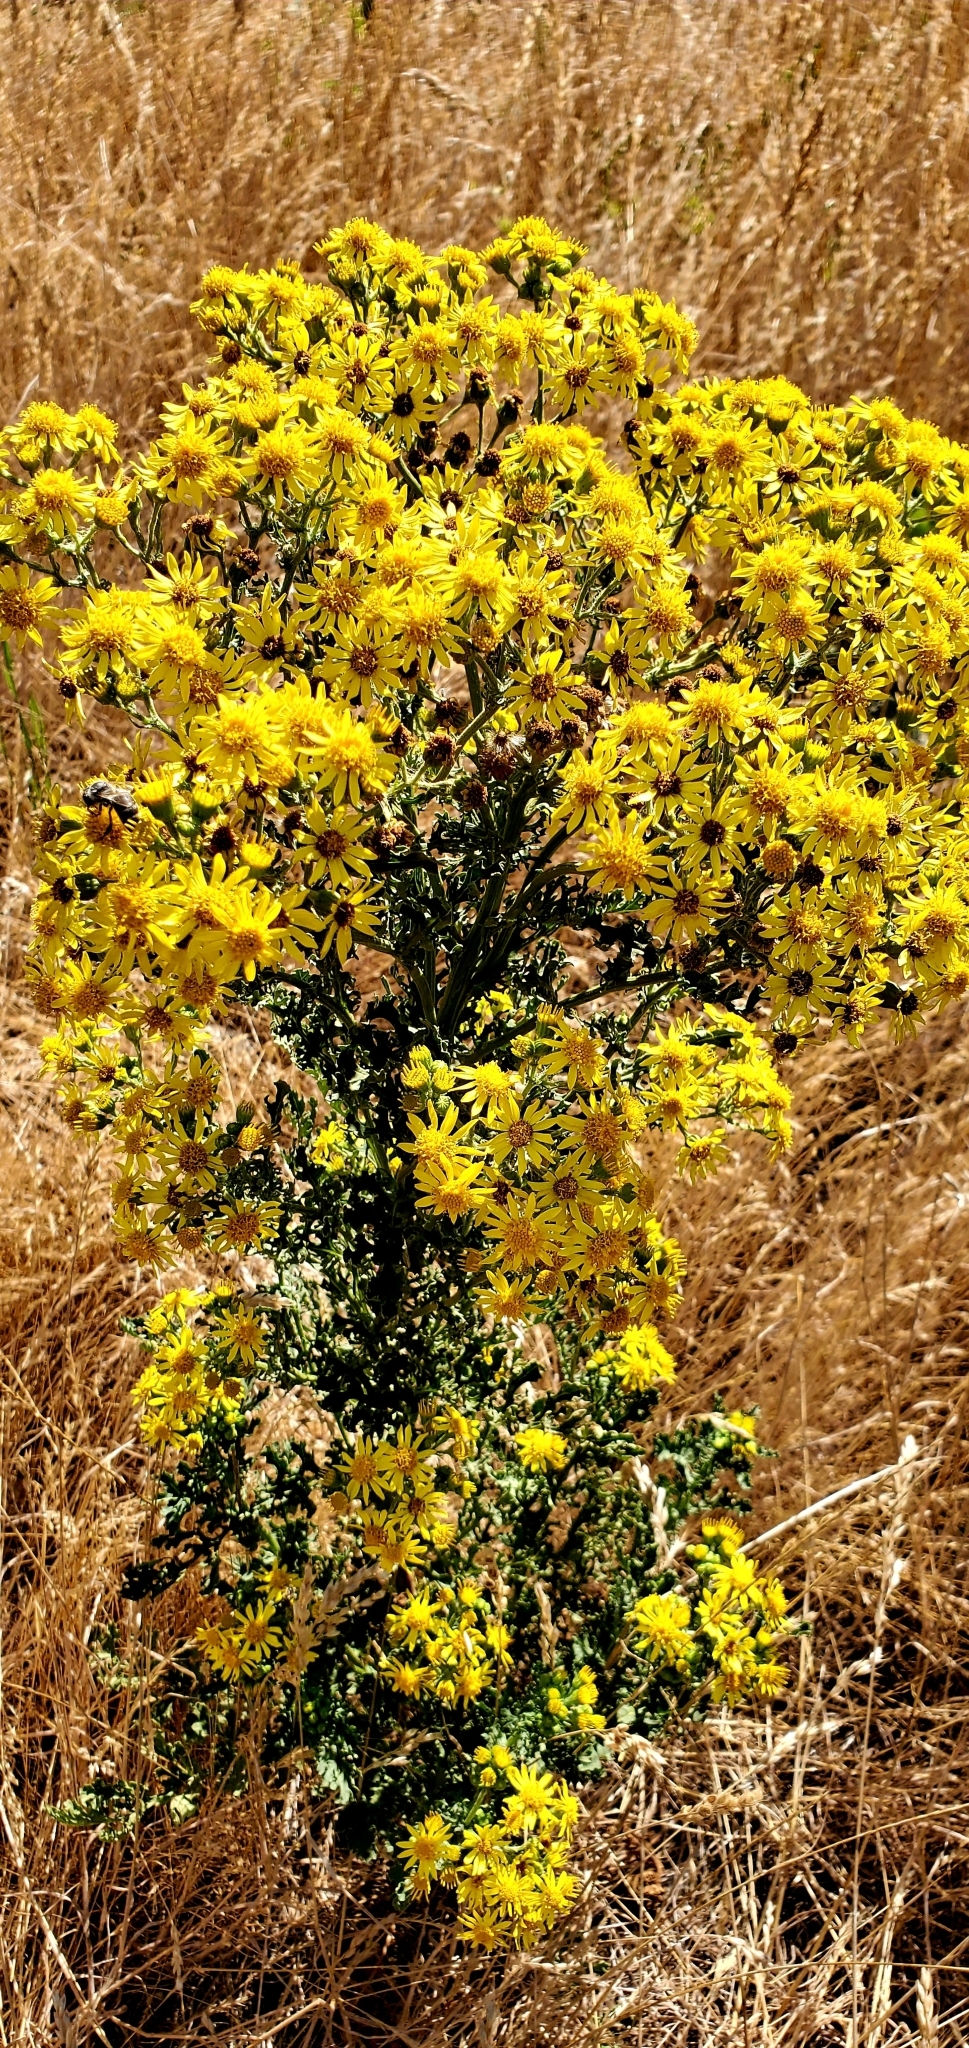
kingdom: Plantae
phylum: Tracheophyta
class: Magnoliopsida
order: Asterales
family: Asteraceae
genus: Jacobaea
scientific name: Jacobaea vulgaris
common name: Stinking willie
